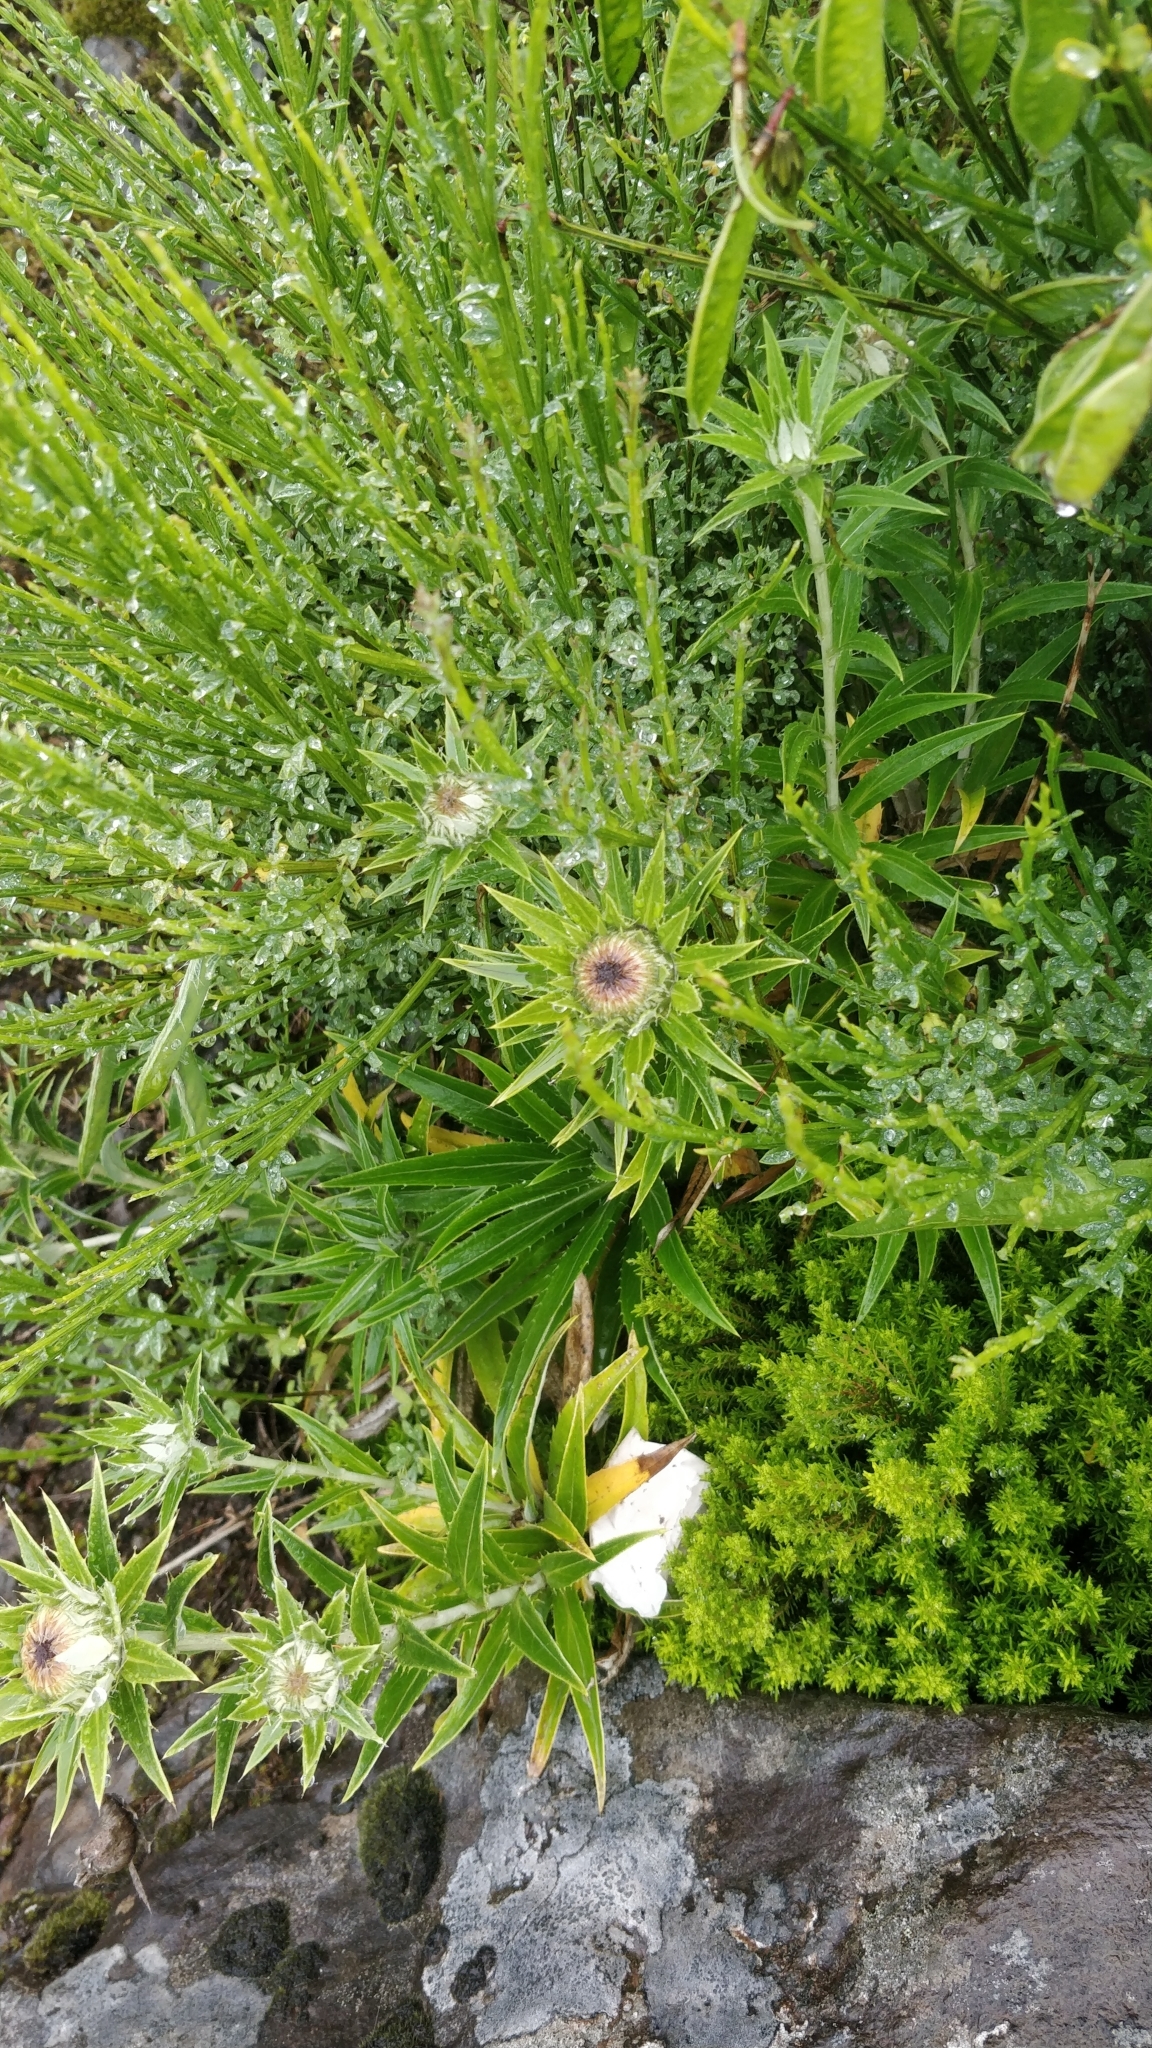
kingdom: Plantae
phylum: Tracheophyta
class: Magnoliopsida
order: Asterales
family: Asteraceae
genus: Carlina
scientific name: Carlina salicifolia
